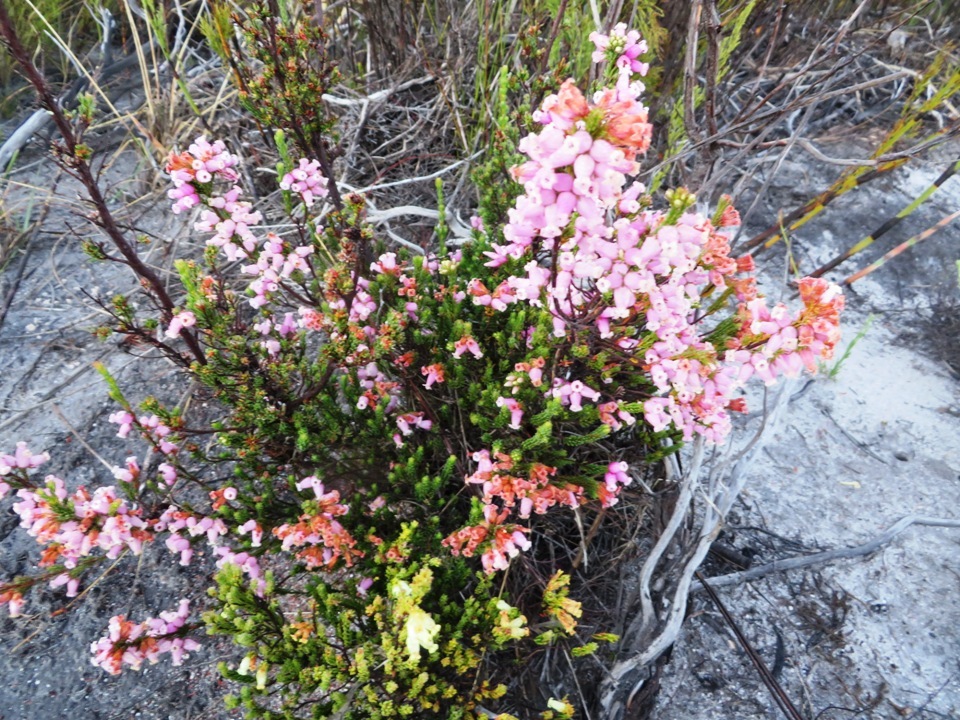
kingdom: Plantae
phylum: Tracheophyta
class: Magnoliopsida
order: Ericales
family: Ericaceae
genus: Erica
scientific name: Erica daphniflora
